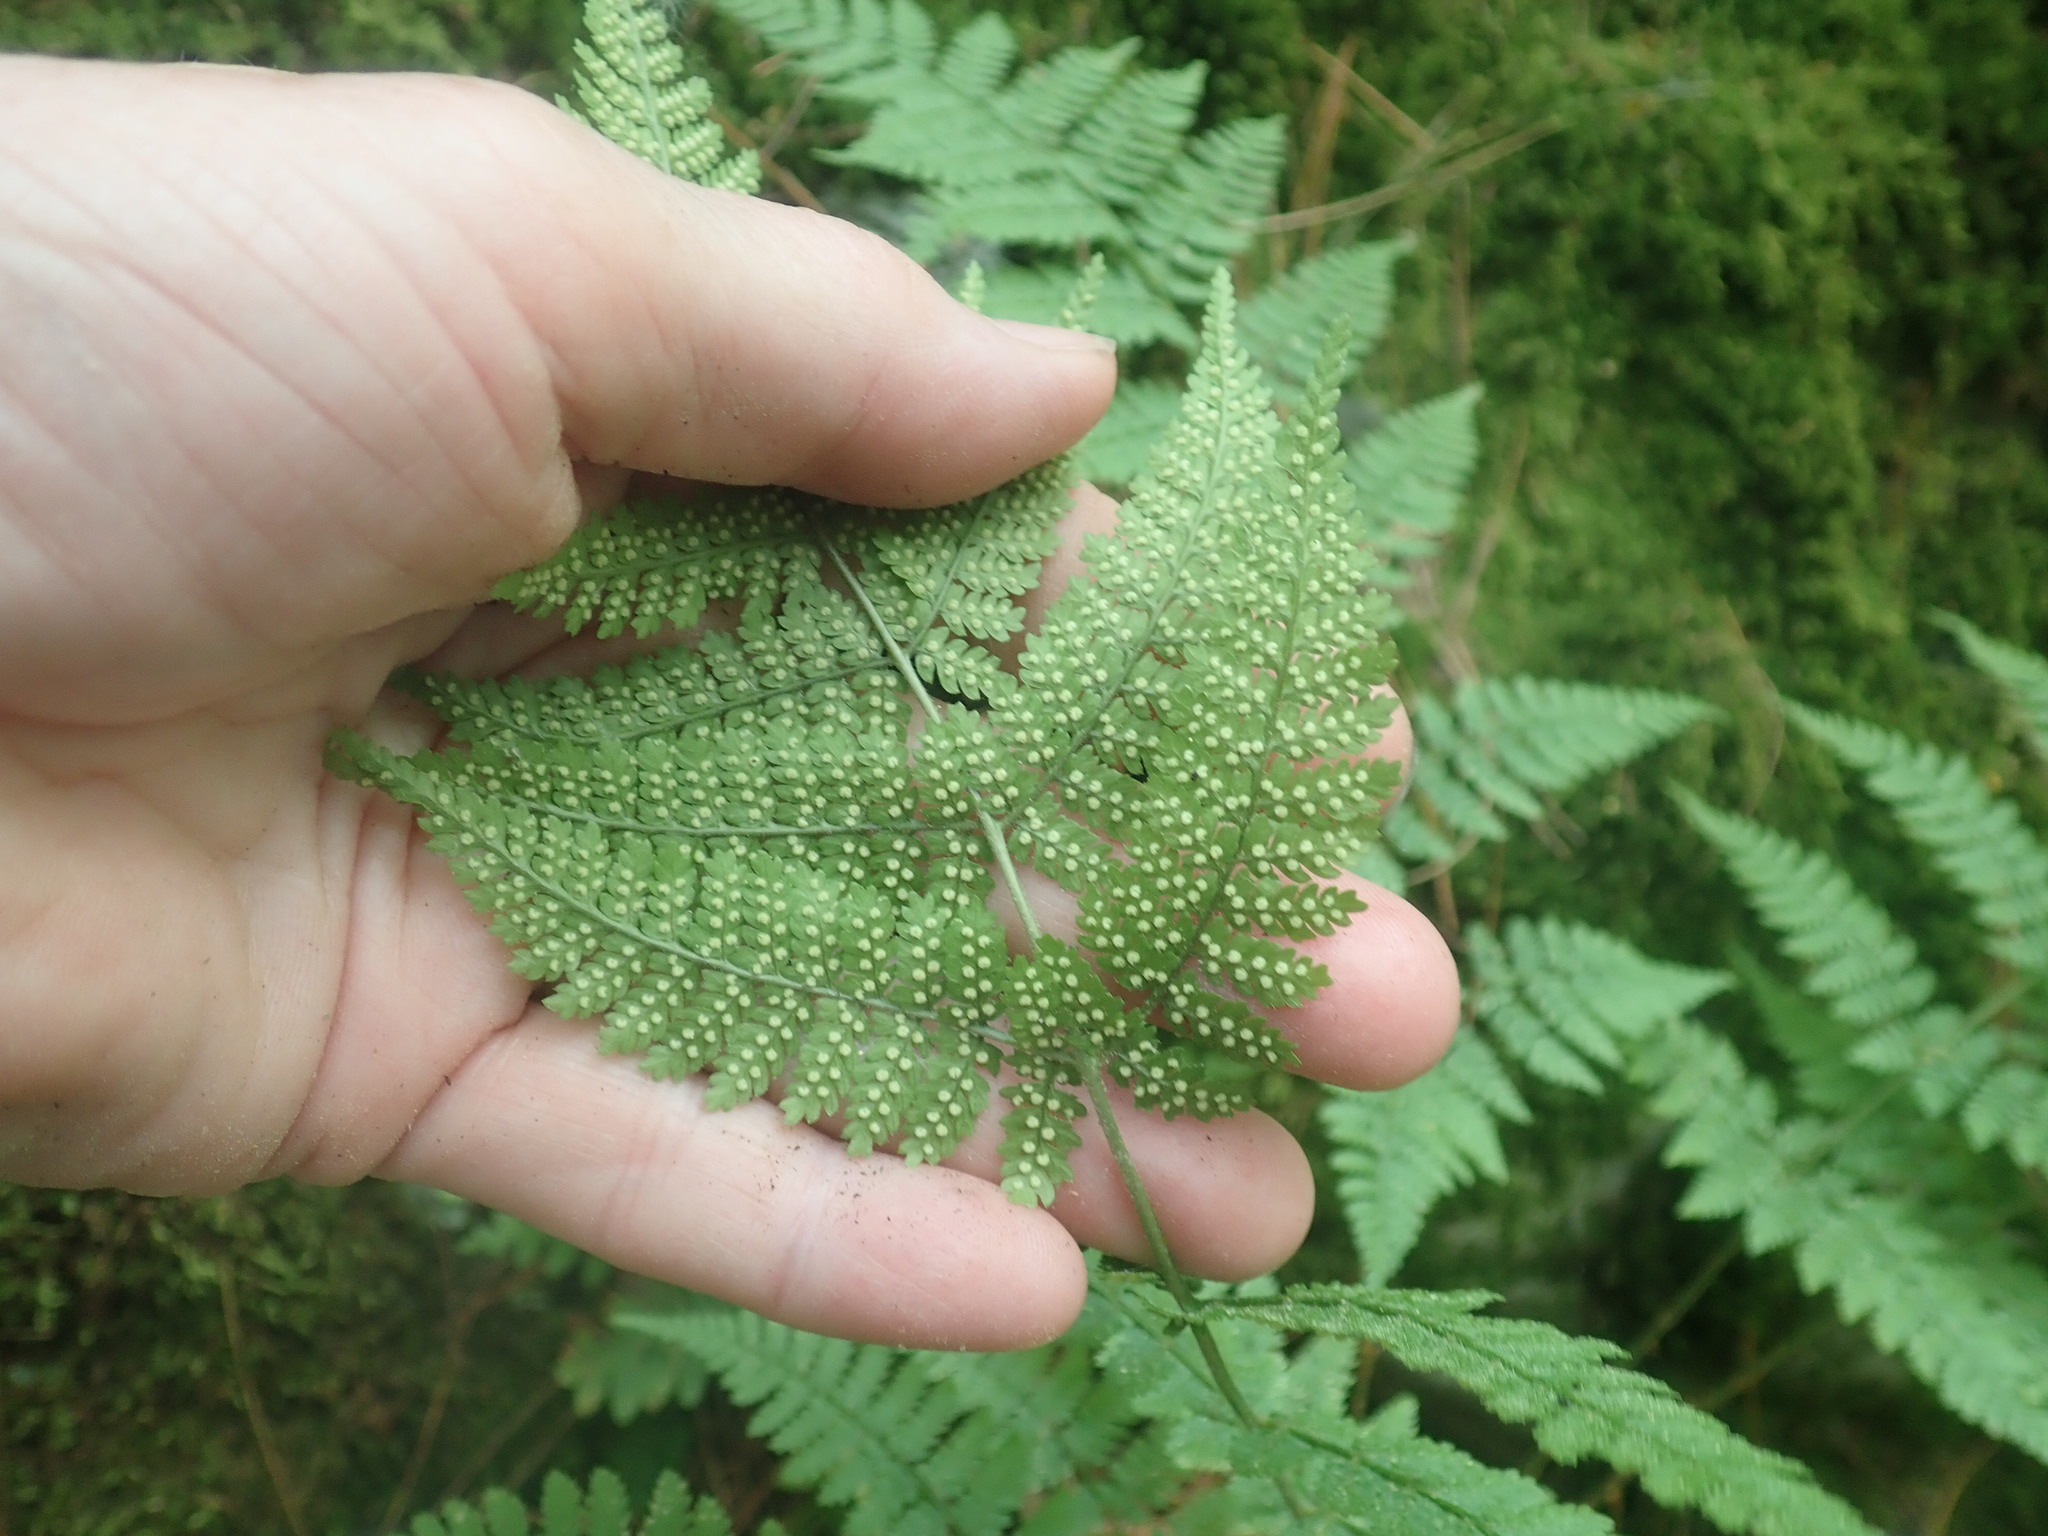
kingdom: Plantae
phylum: Tracheophyta
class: Polypodiopsida
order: Polypodiales
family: Dryopteridaceae
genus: Dryopteris
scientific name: Dryopteris intermedia
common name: Evergreen wood fern
